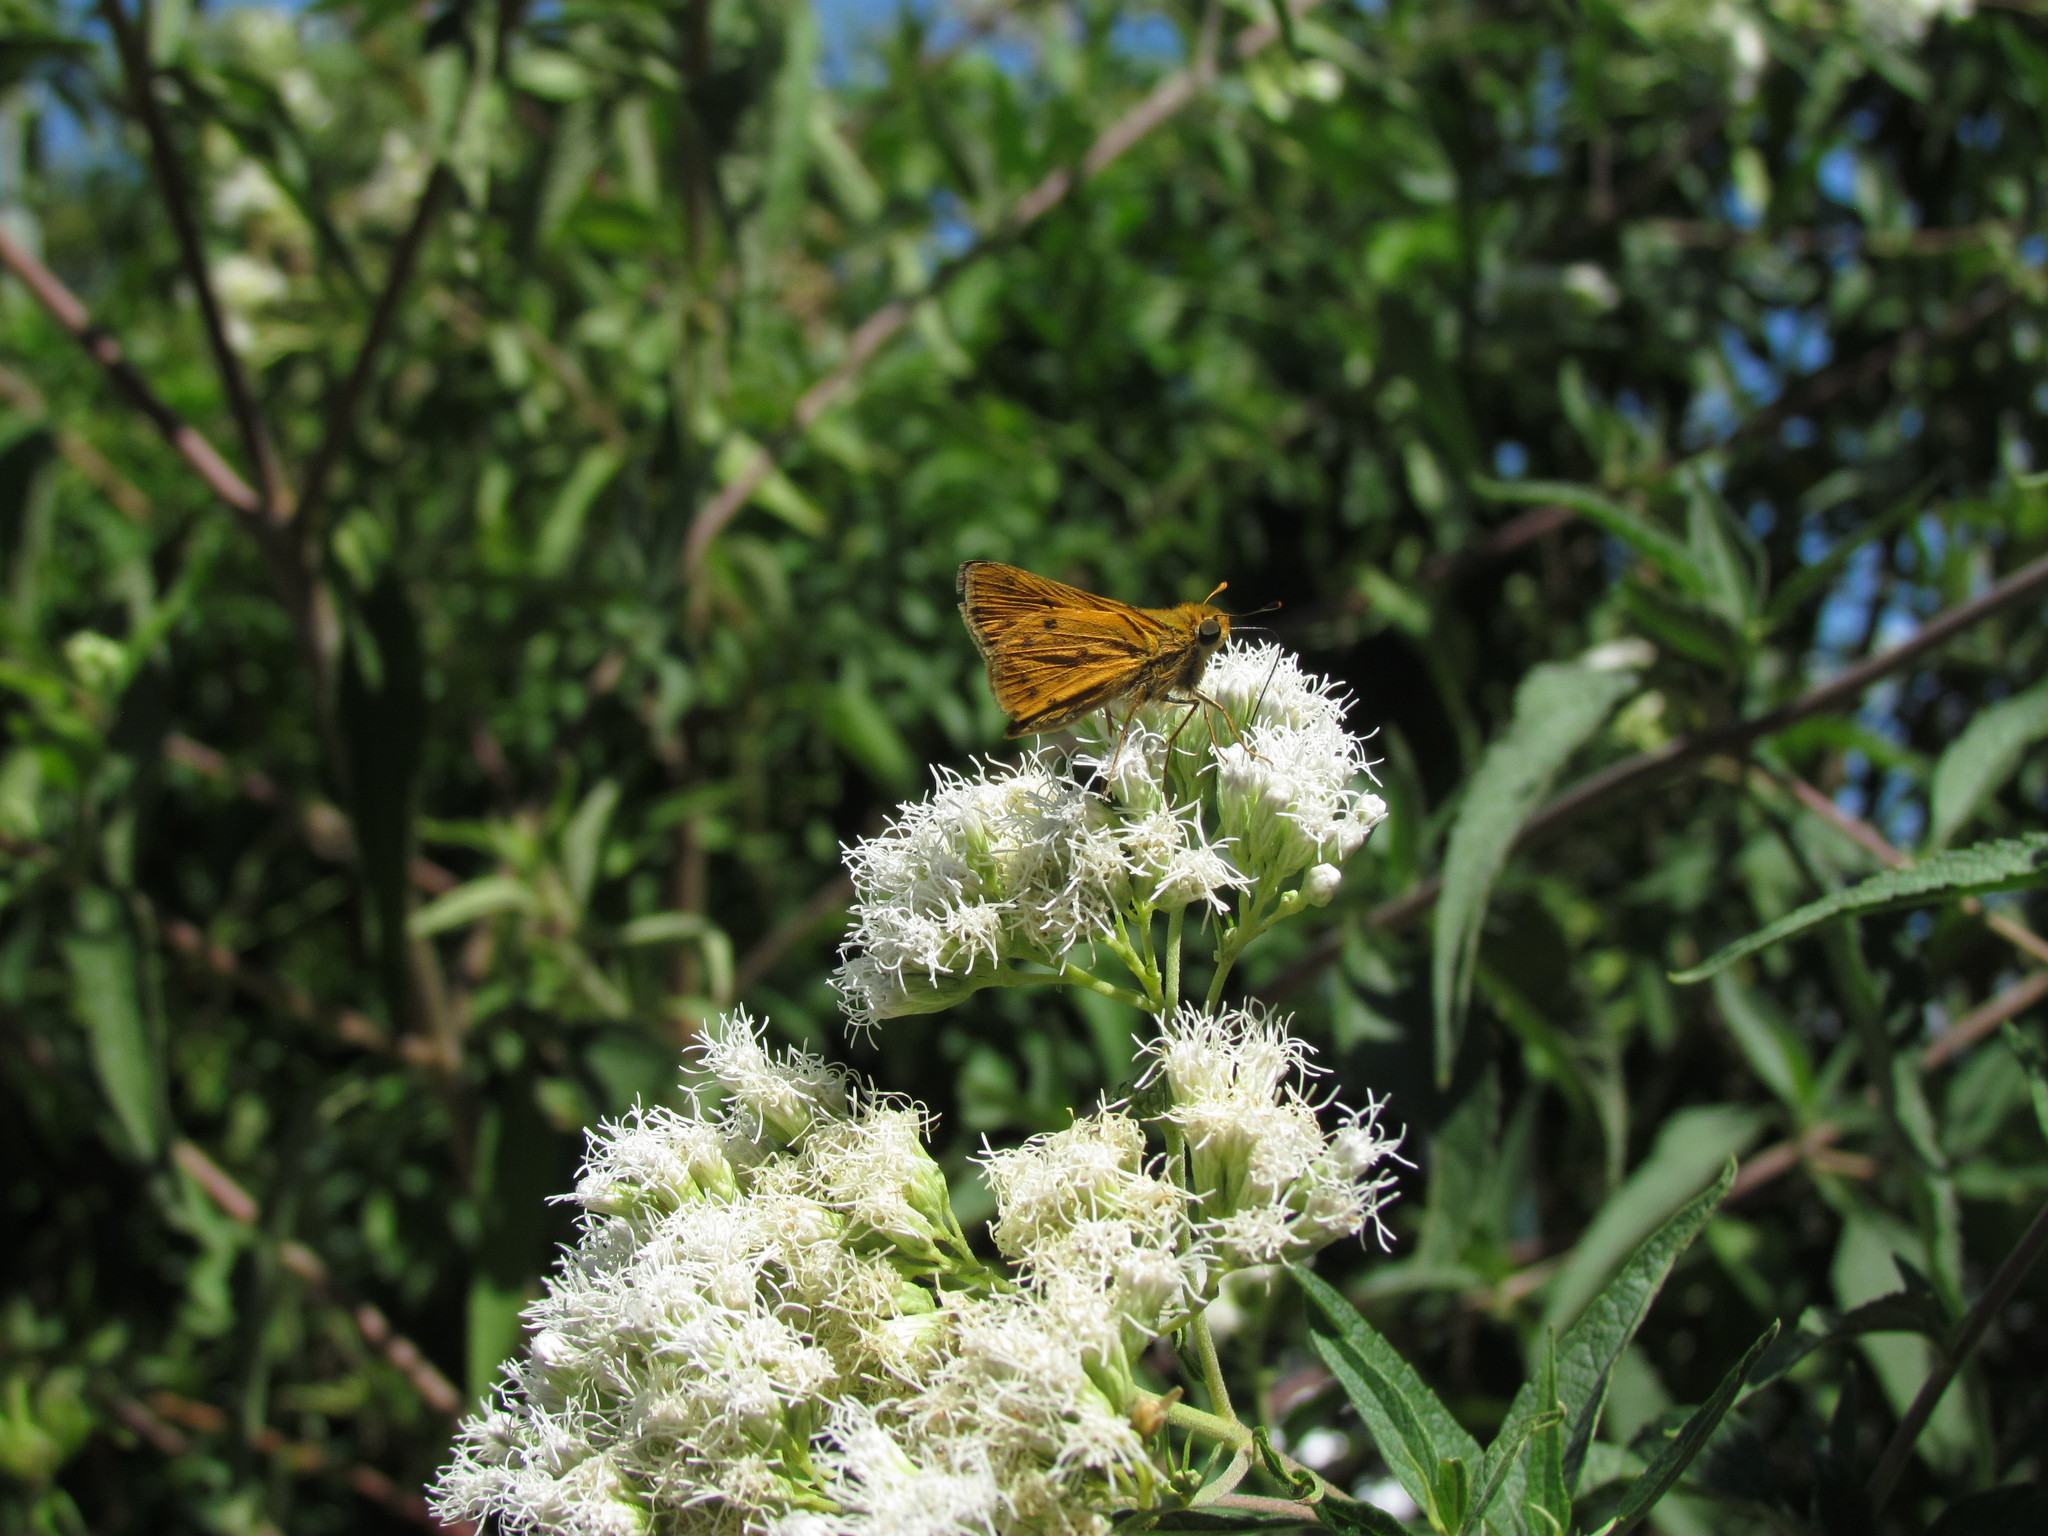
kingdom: Animalia
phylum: Arthropoda
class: Insecta
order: Lepidoptera
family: Hesperiidae
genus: Hylephila
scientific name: Hylephila phyleus
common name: Fiery skipper
